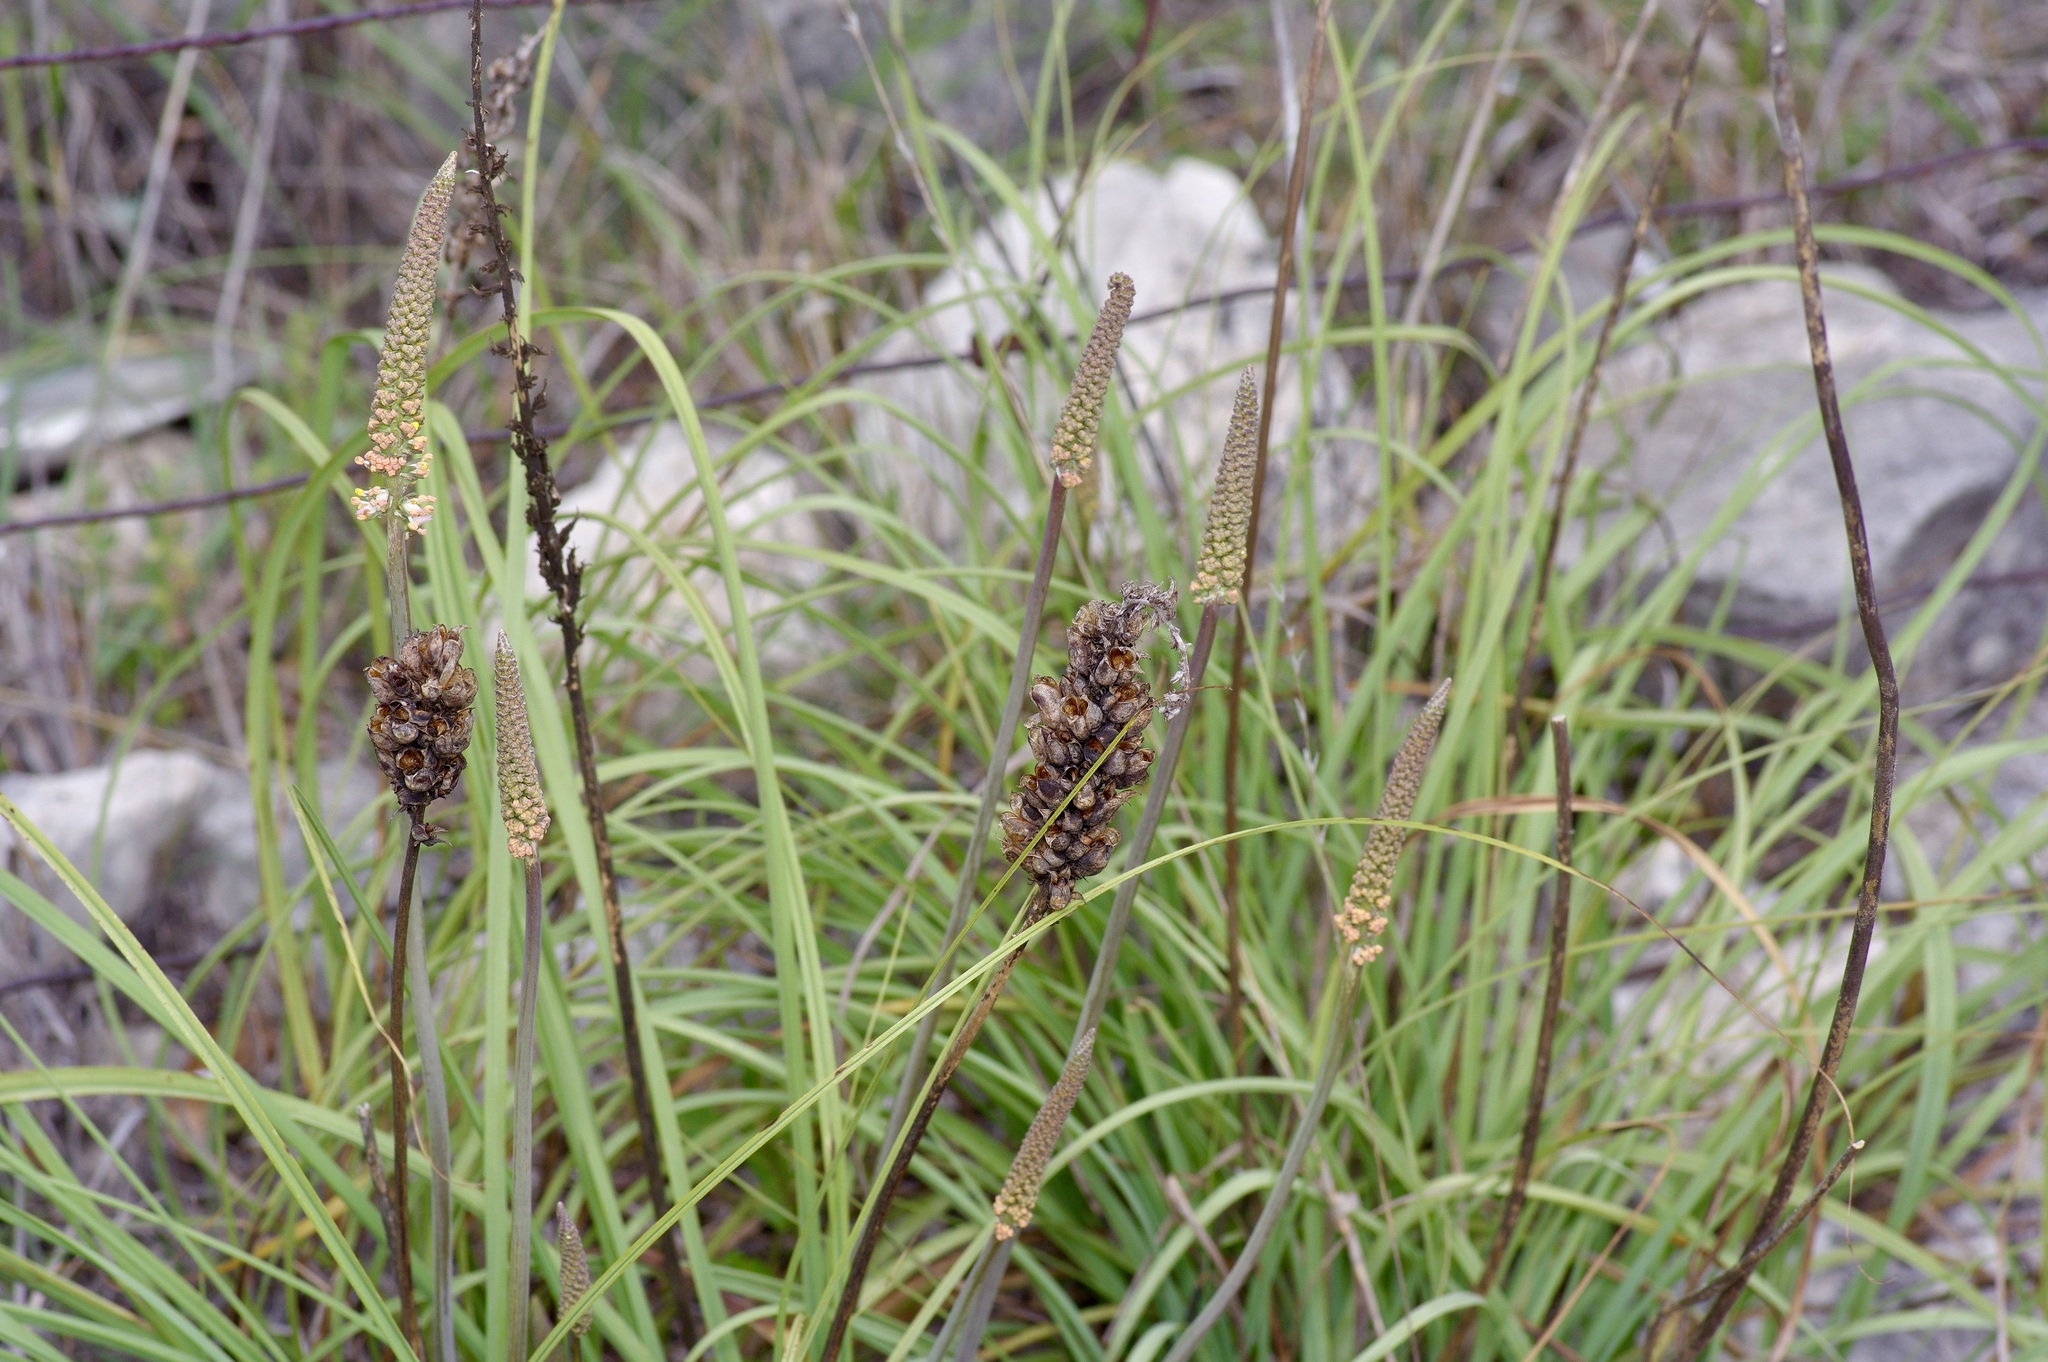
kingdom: Plantae
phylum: Tracheophyta
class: Liliopsida
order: Liliales
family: Melanthiaceae
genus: Schoenocaulon
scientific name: Schoenocaulon texanum
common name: Texas feather-shank
